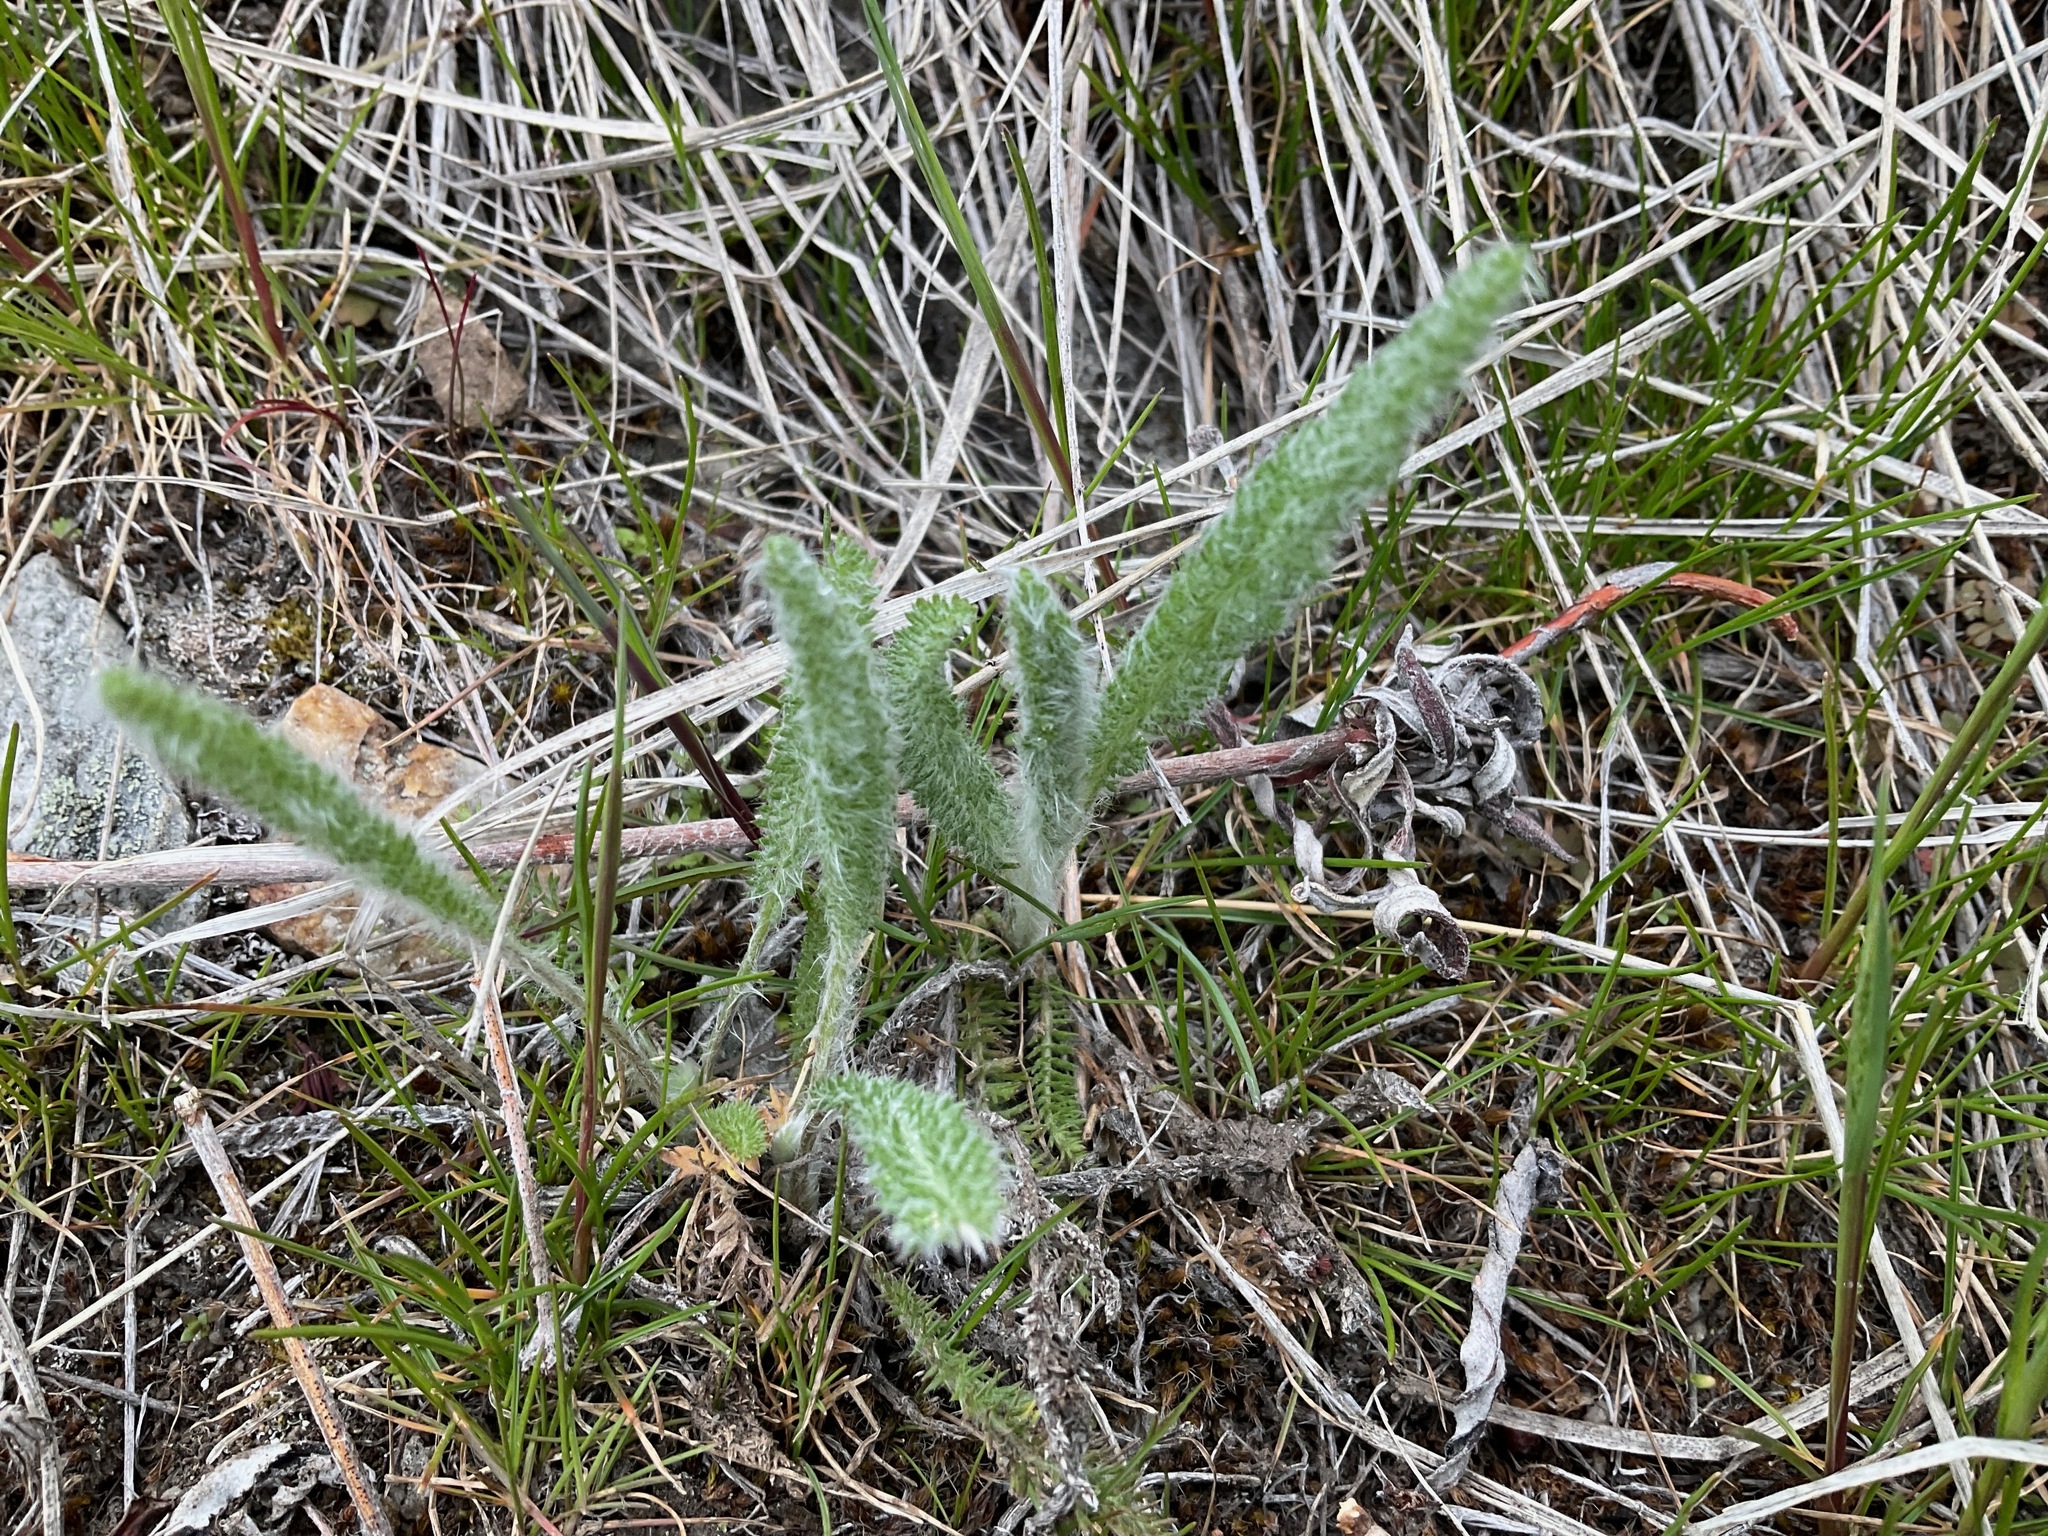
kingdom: Plantae
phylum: Tracheophyta
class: Magnoliopsida
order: Asterales
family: Asteraceae
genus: Achillea
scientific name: Achillea millefolium
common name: Yarrow
